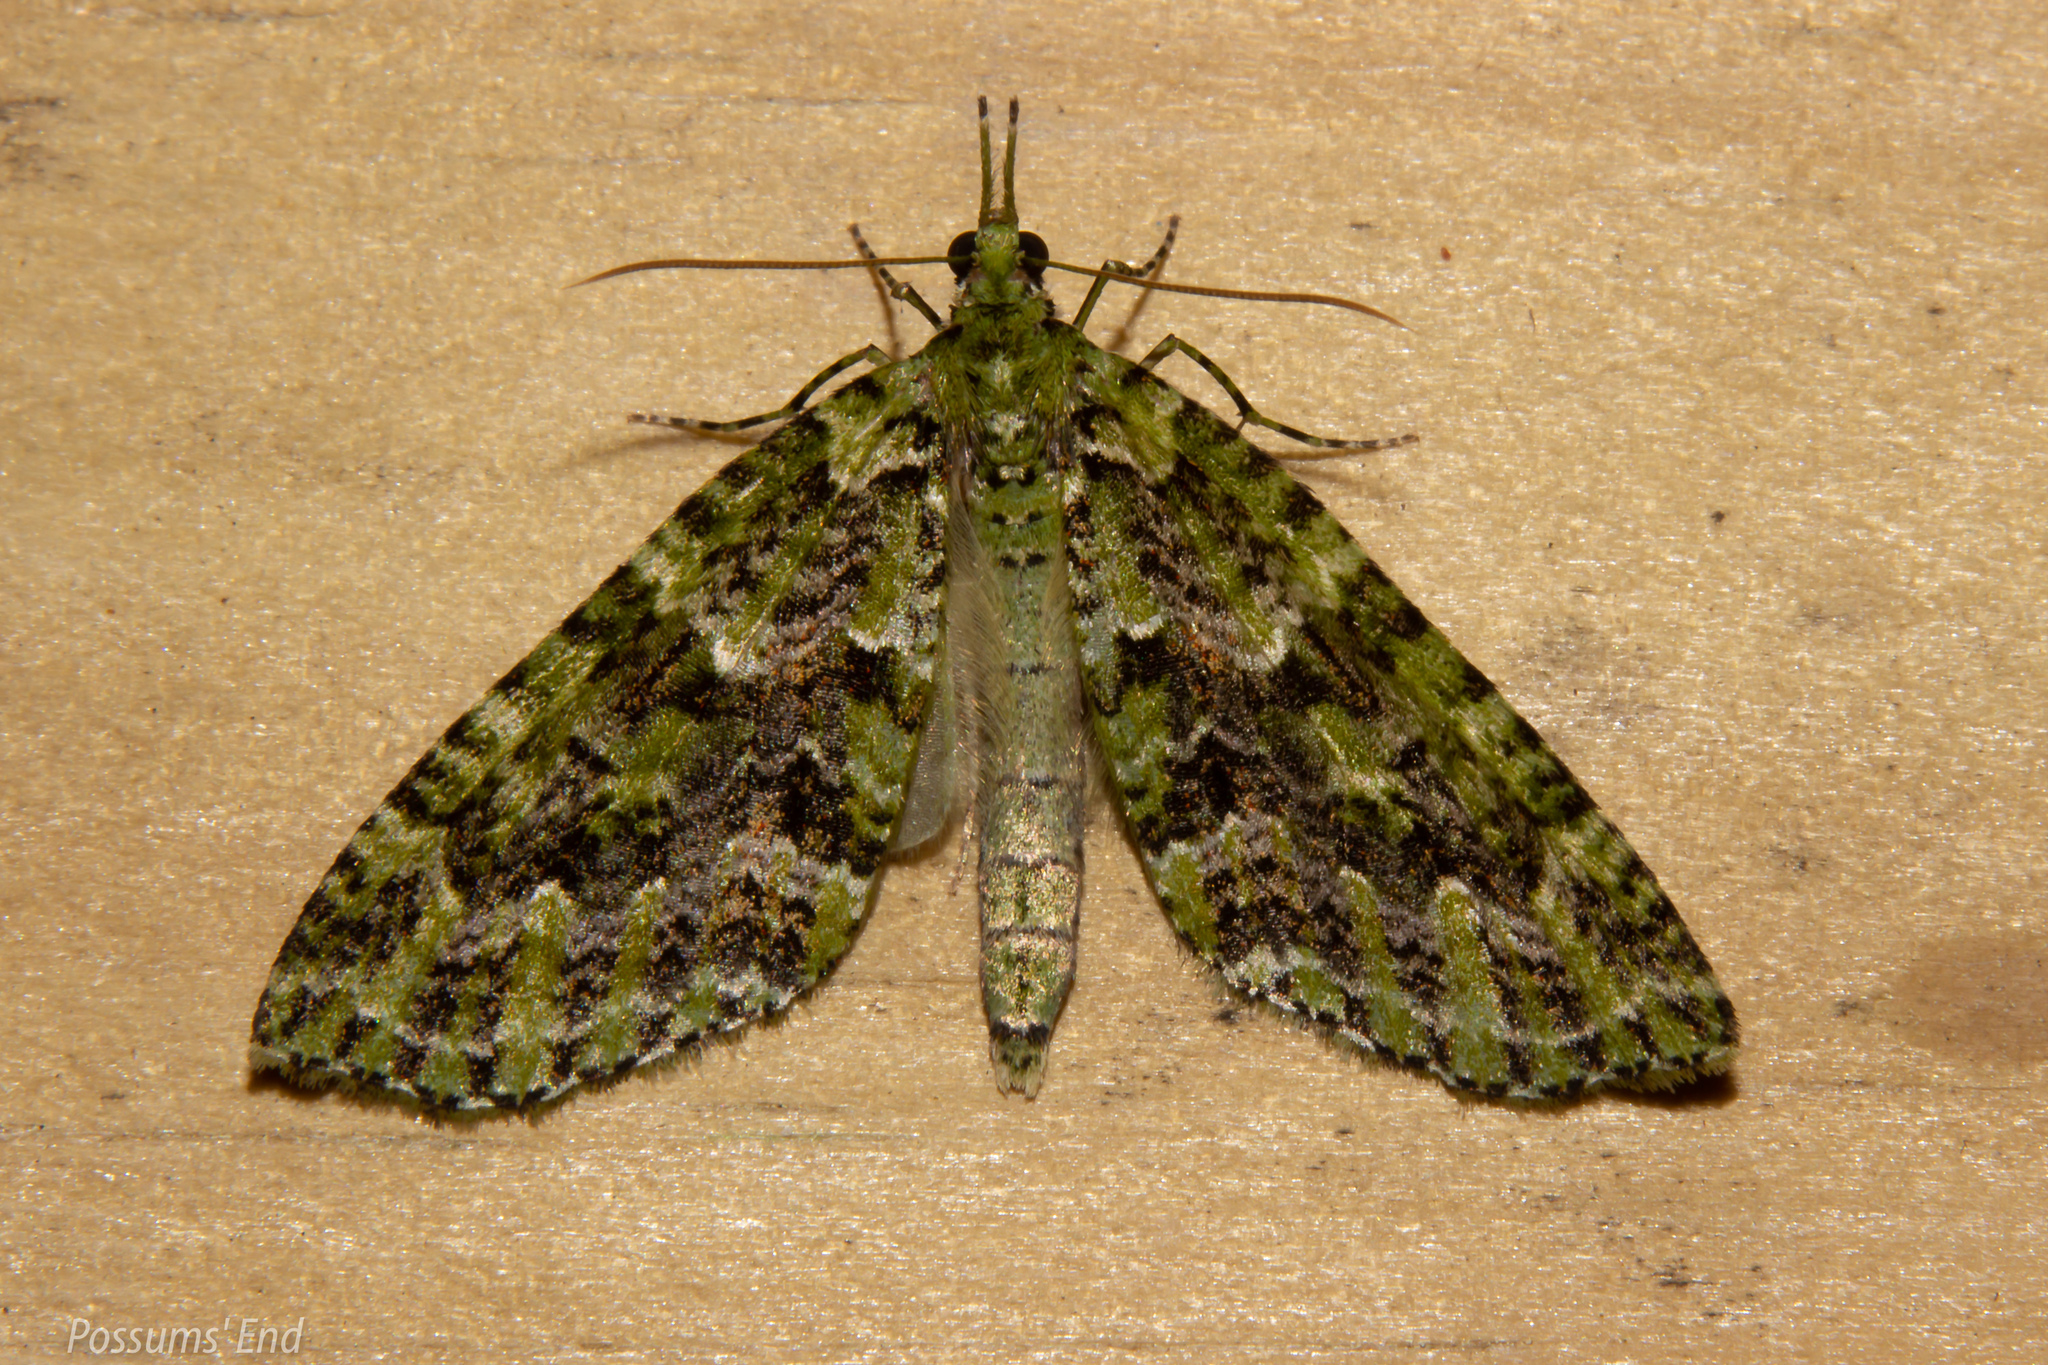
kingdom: Animalia
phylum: Arthropoda
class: Insecta
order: Lepidoptera
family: Geometridae
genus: Tatosoma
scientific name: Tatosoma tipulata
